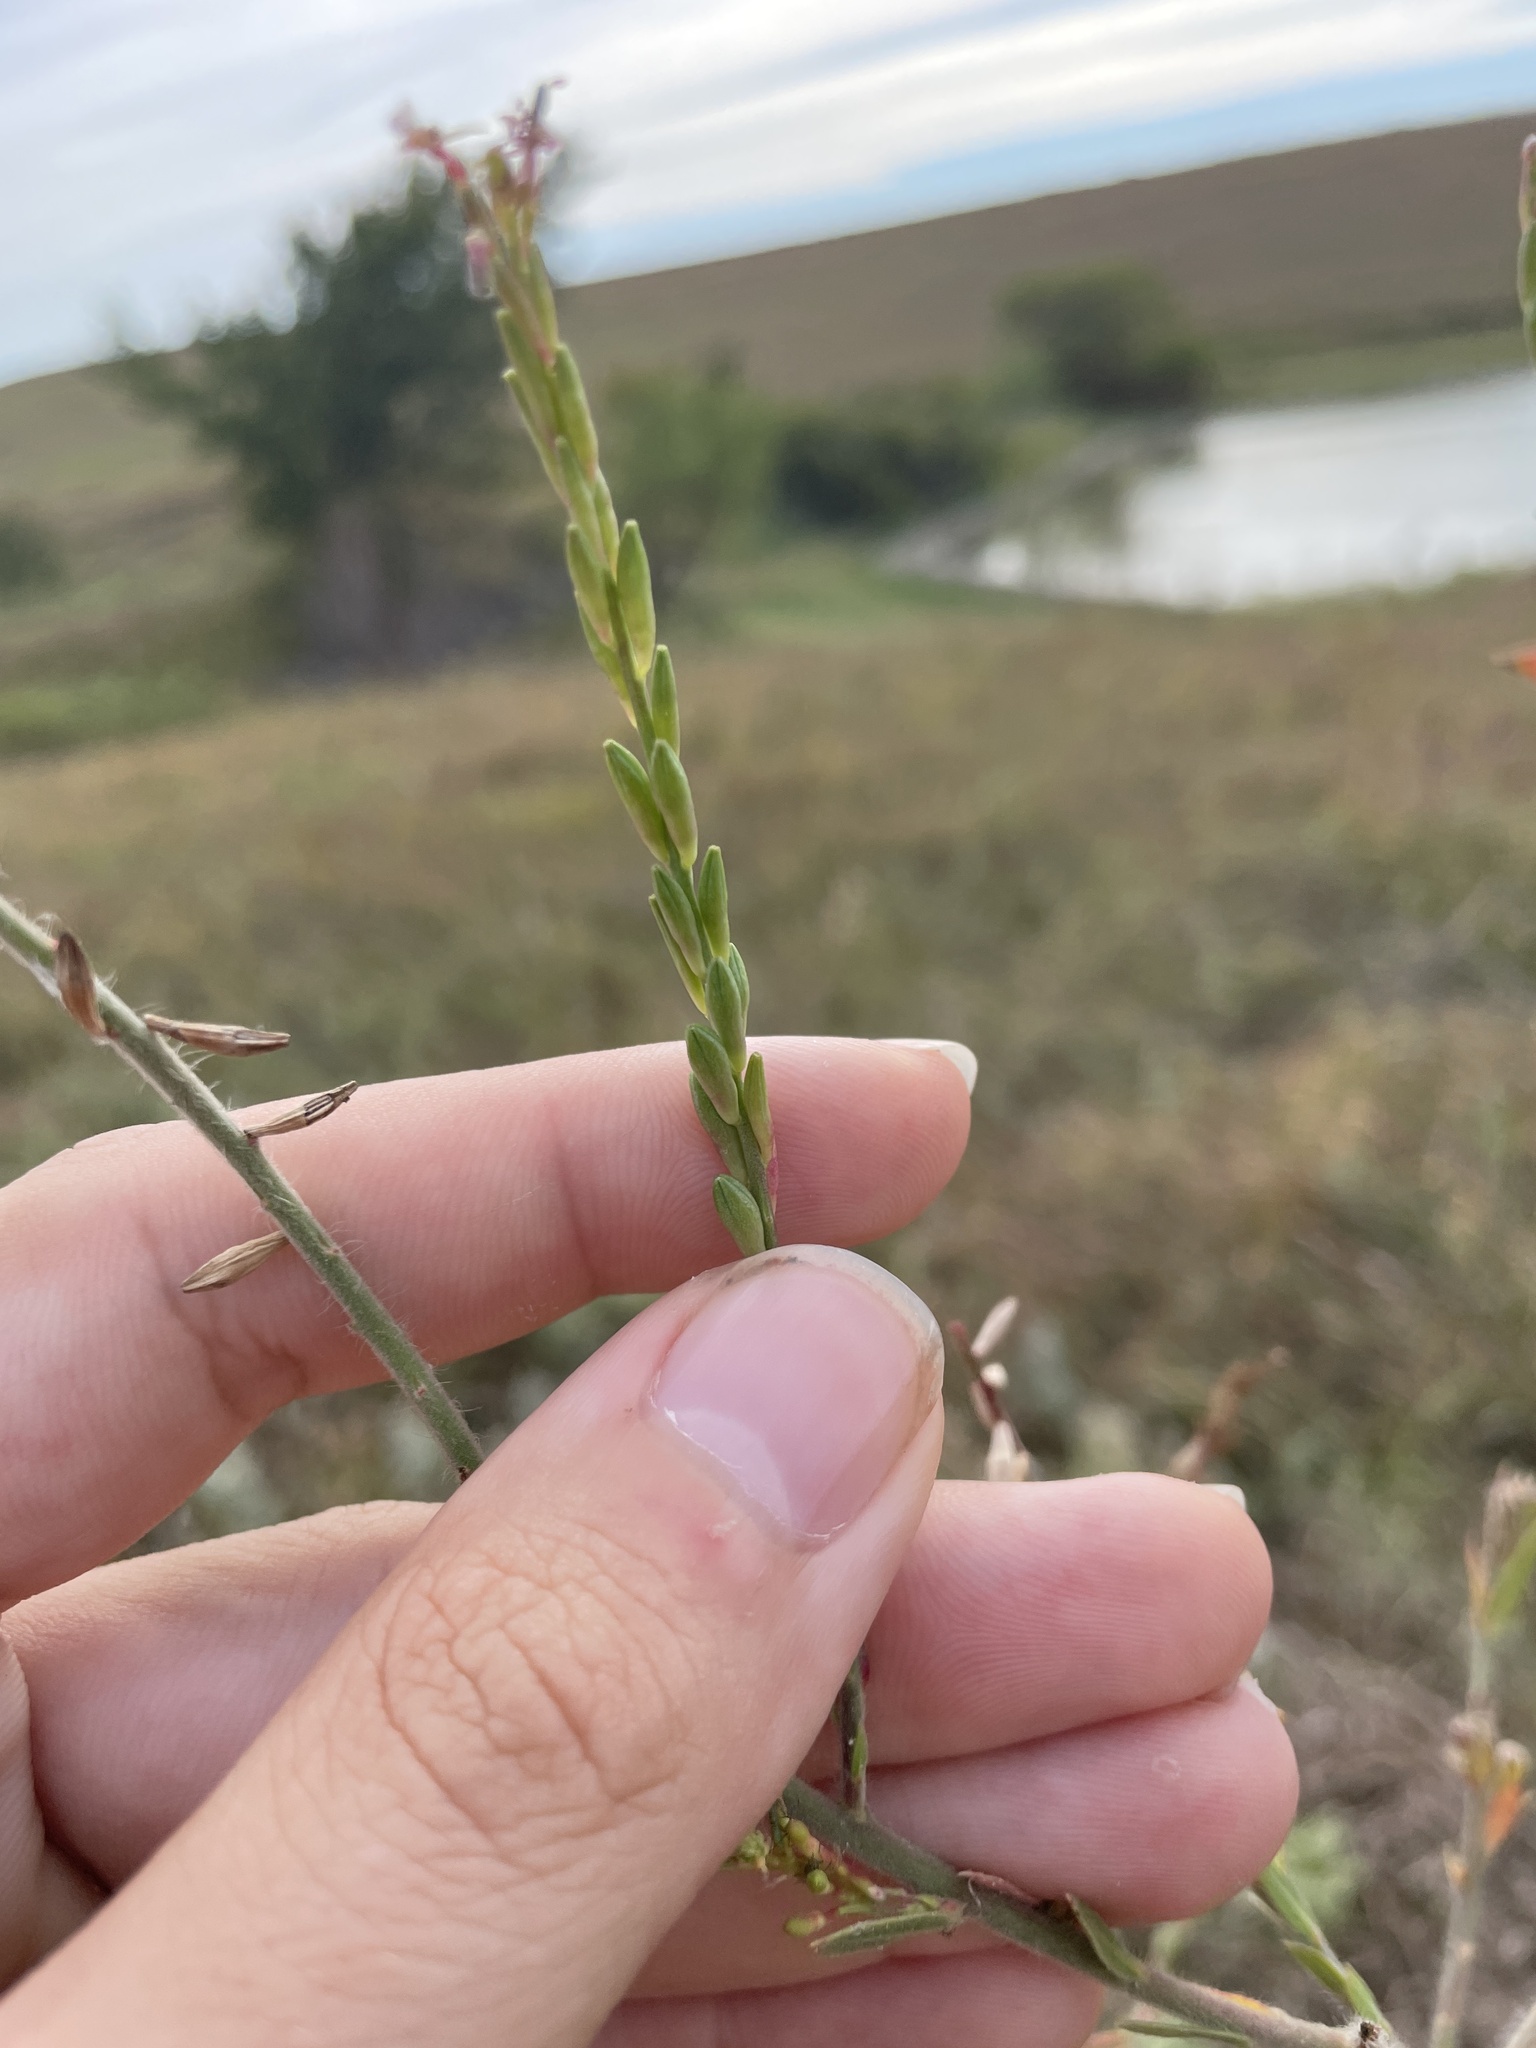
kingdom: Plantae
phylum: Tracheophyta
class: Magnoliopsida
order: Myrtales
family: Onagraceae
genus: Oenothera
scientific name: Oenothera curtiflora
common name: Velvetweed
